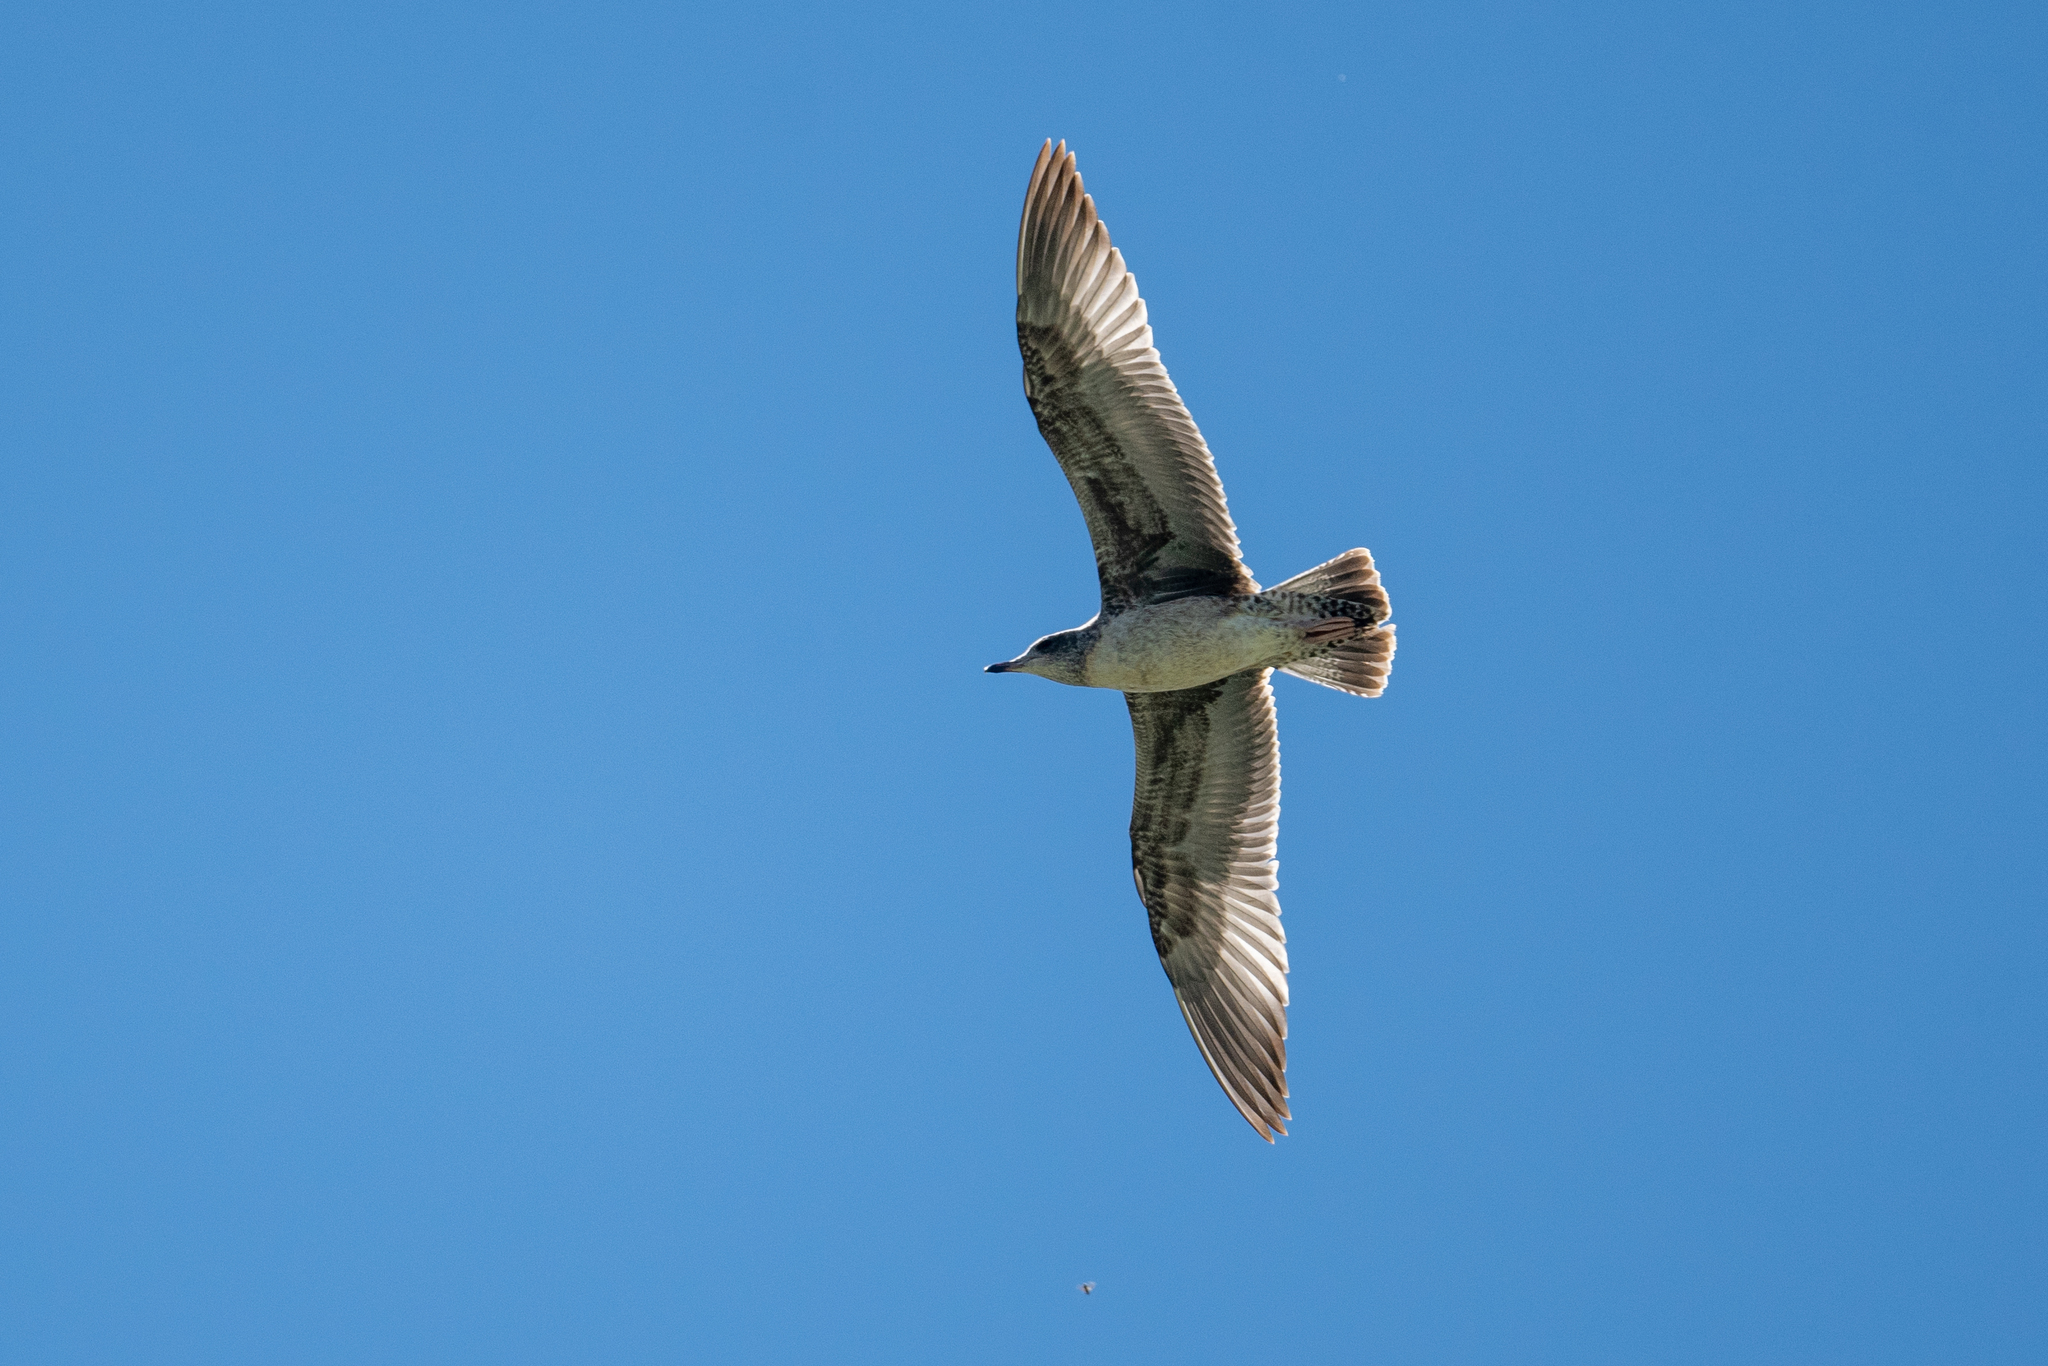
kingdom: Animalia
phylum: Chordata
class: Aves
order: Charadriiformes
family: Laridae
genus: Larus
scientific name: Larus californicus
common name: California gull
